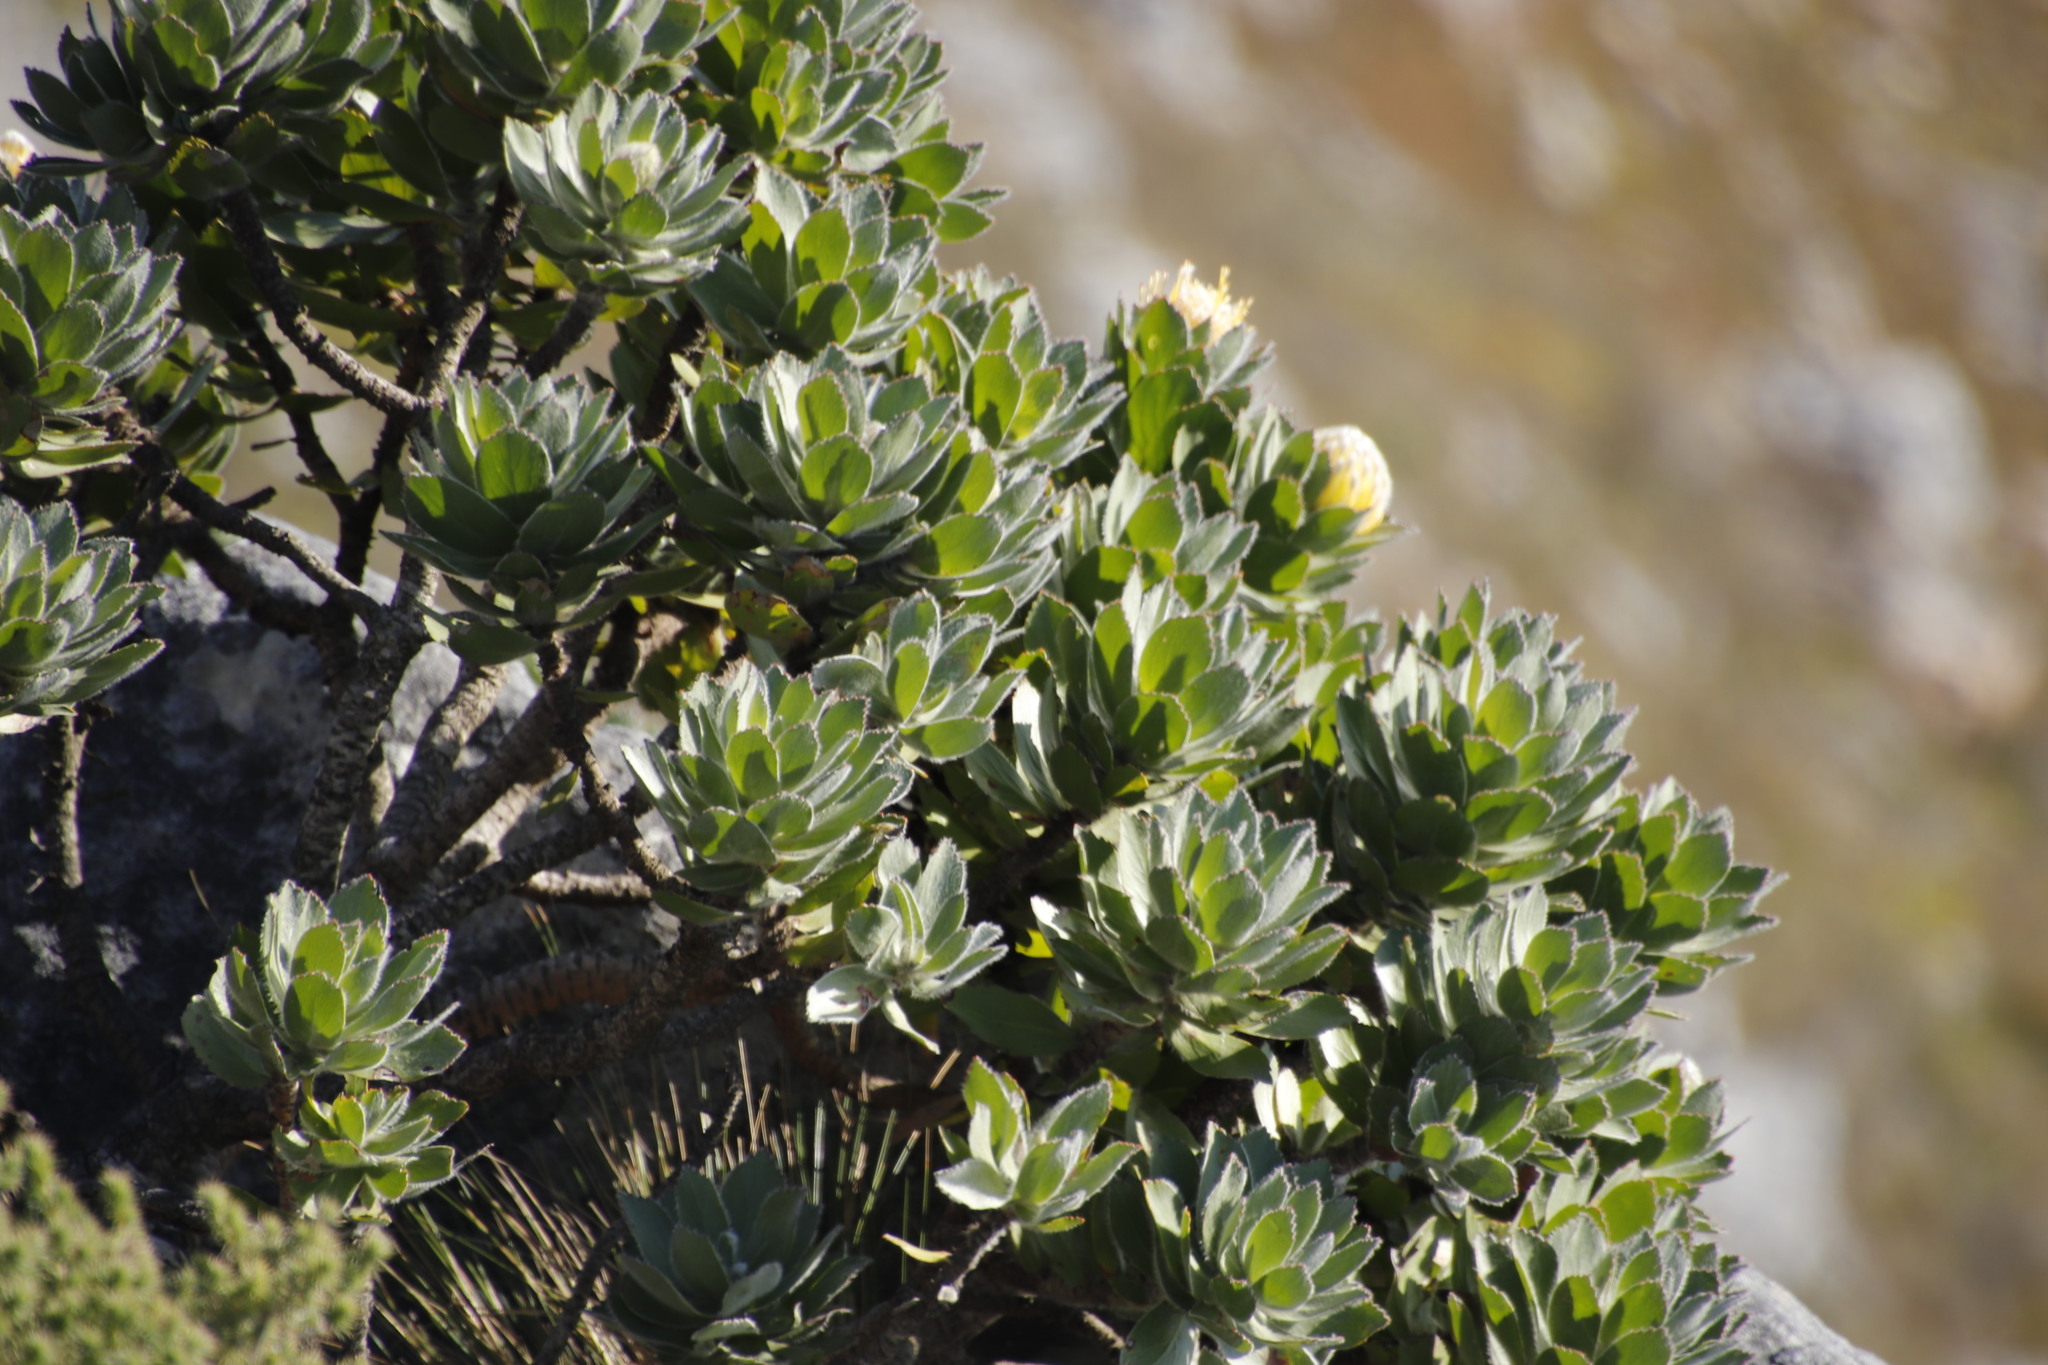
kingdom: Plantae
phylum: Tracheophyta
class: Magnoliopsida
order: Proteales
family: Proteaceae
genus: Leucospermum
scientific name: Leucospermum conocarpodendron
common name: Tree pincushion
